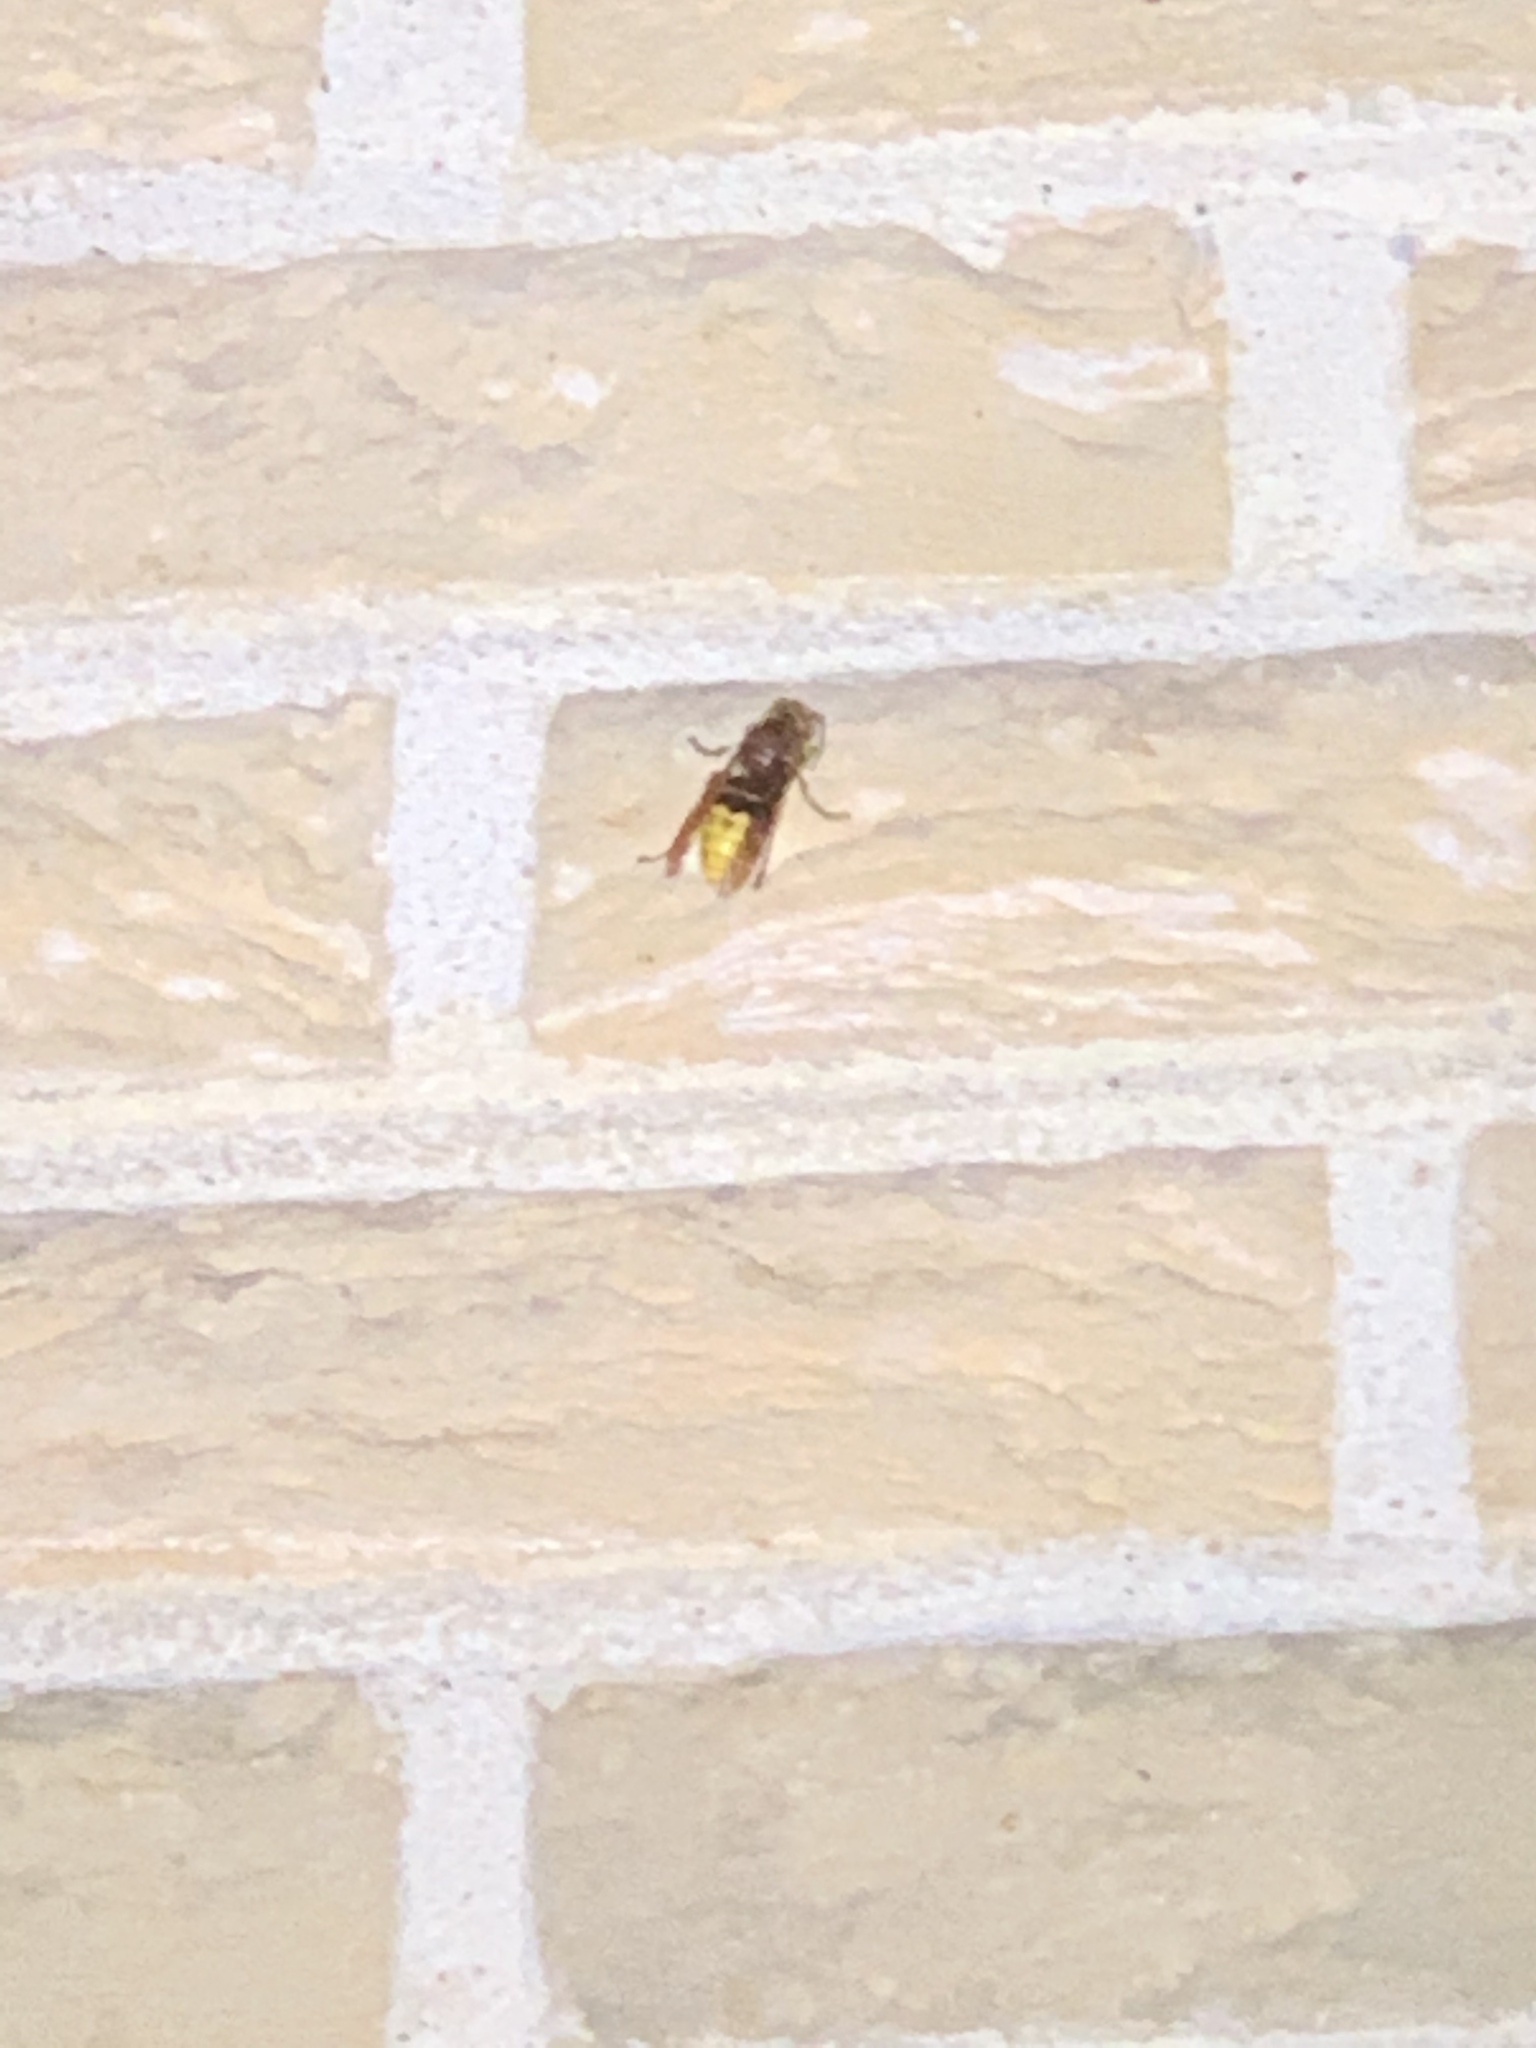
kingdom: Animalia
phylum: Arthropoda
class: Insecta
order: Hymenoptera
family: Vespidae
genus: Vespa
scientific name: Vespa crabro
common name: Hornet
